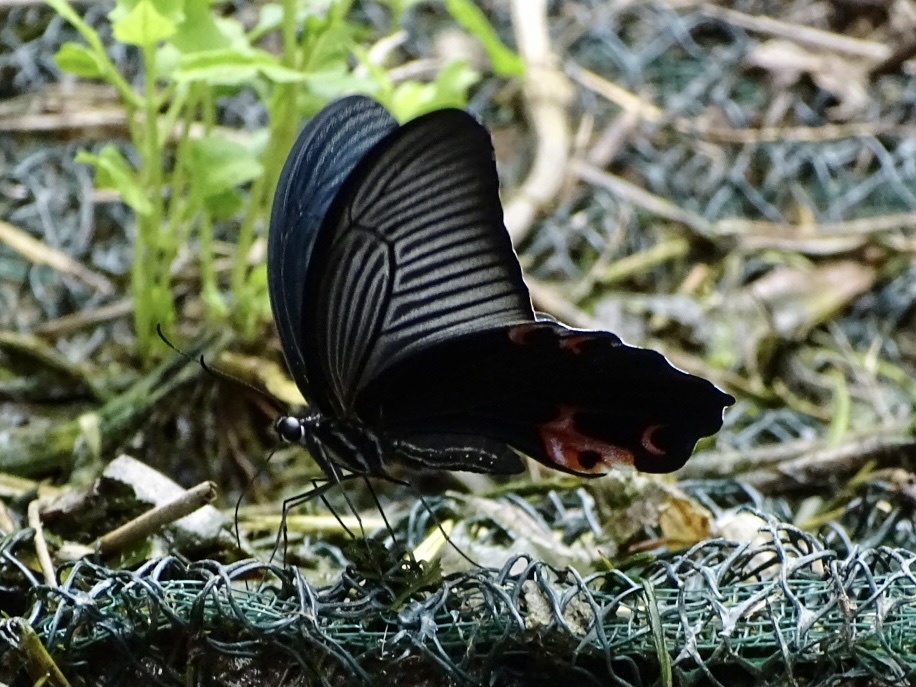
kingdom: Animalia
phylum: Arthropoda
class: Insecta
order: Lepidoptera
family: Papilionidae
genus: Papilio
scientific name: Papilio protenor
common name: Spangle
